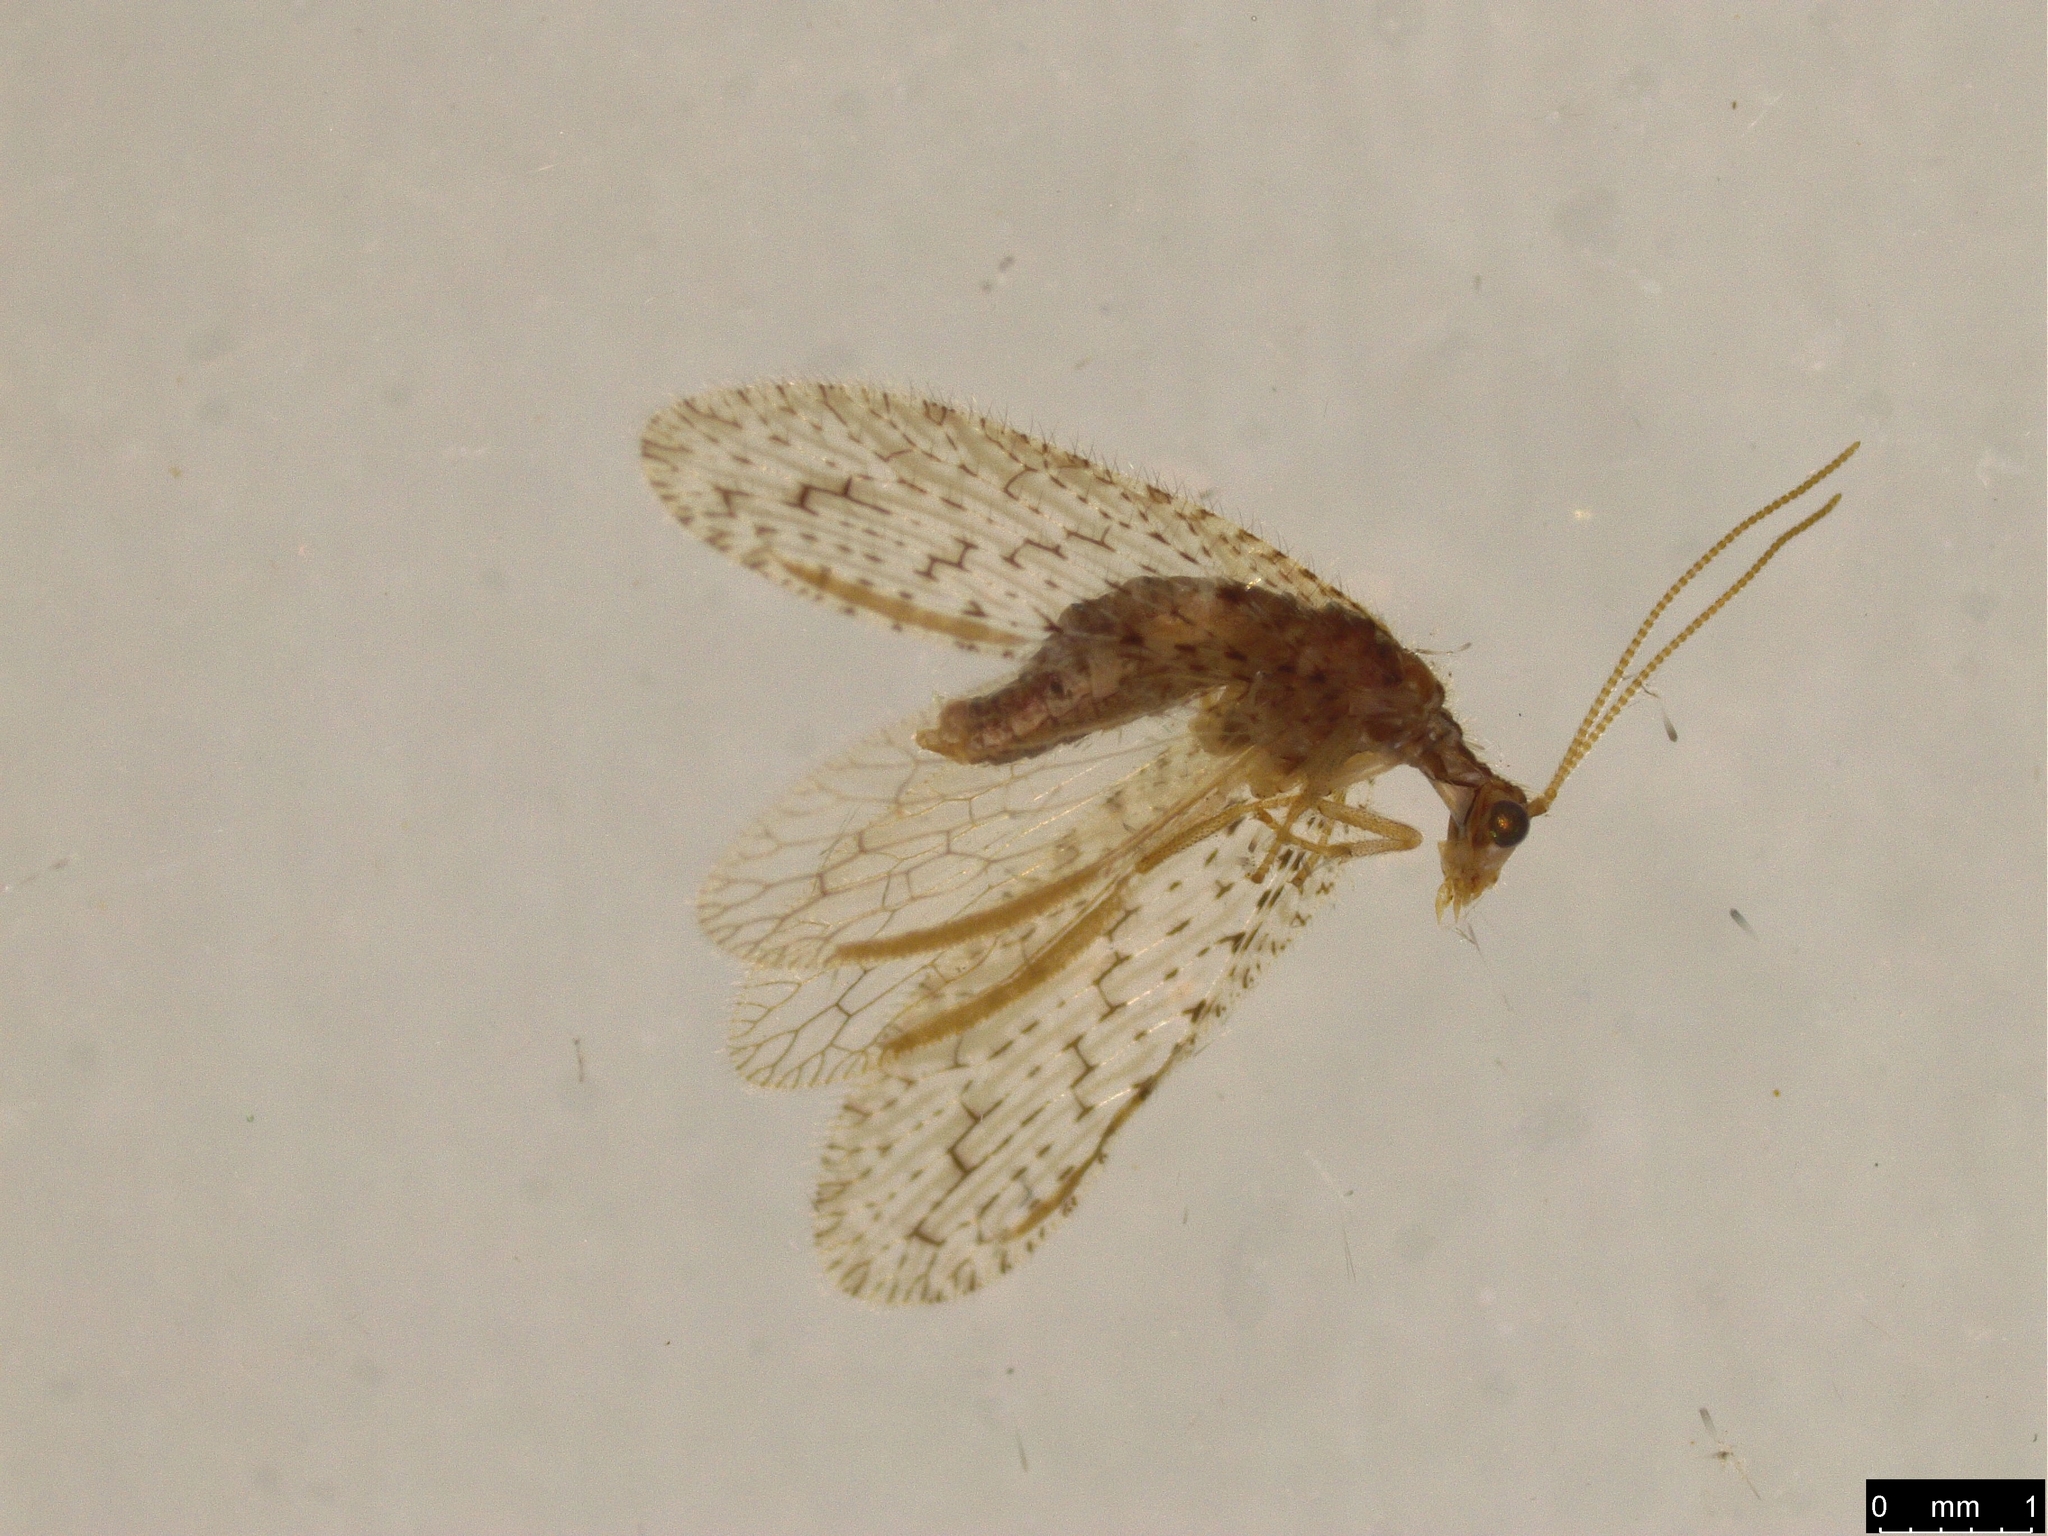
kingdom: Animalia
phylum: Arthropoda
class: Insecta
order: Neuroptera
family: Hemerobiidae
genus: Micromus
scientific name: Micromus tasmaniae
